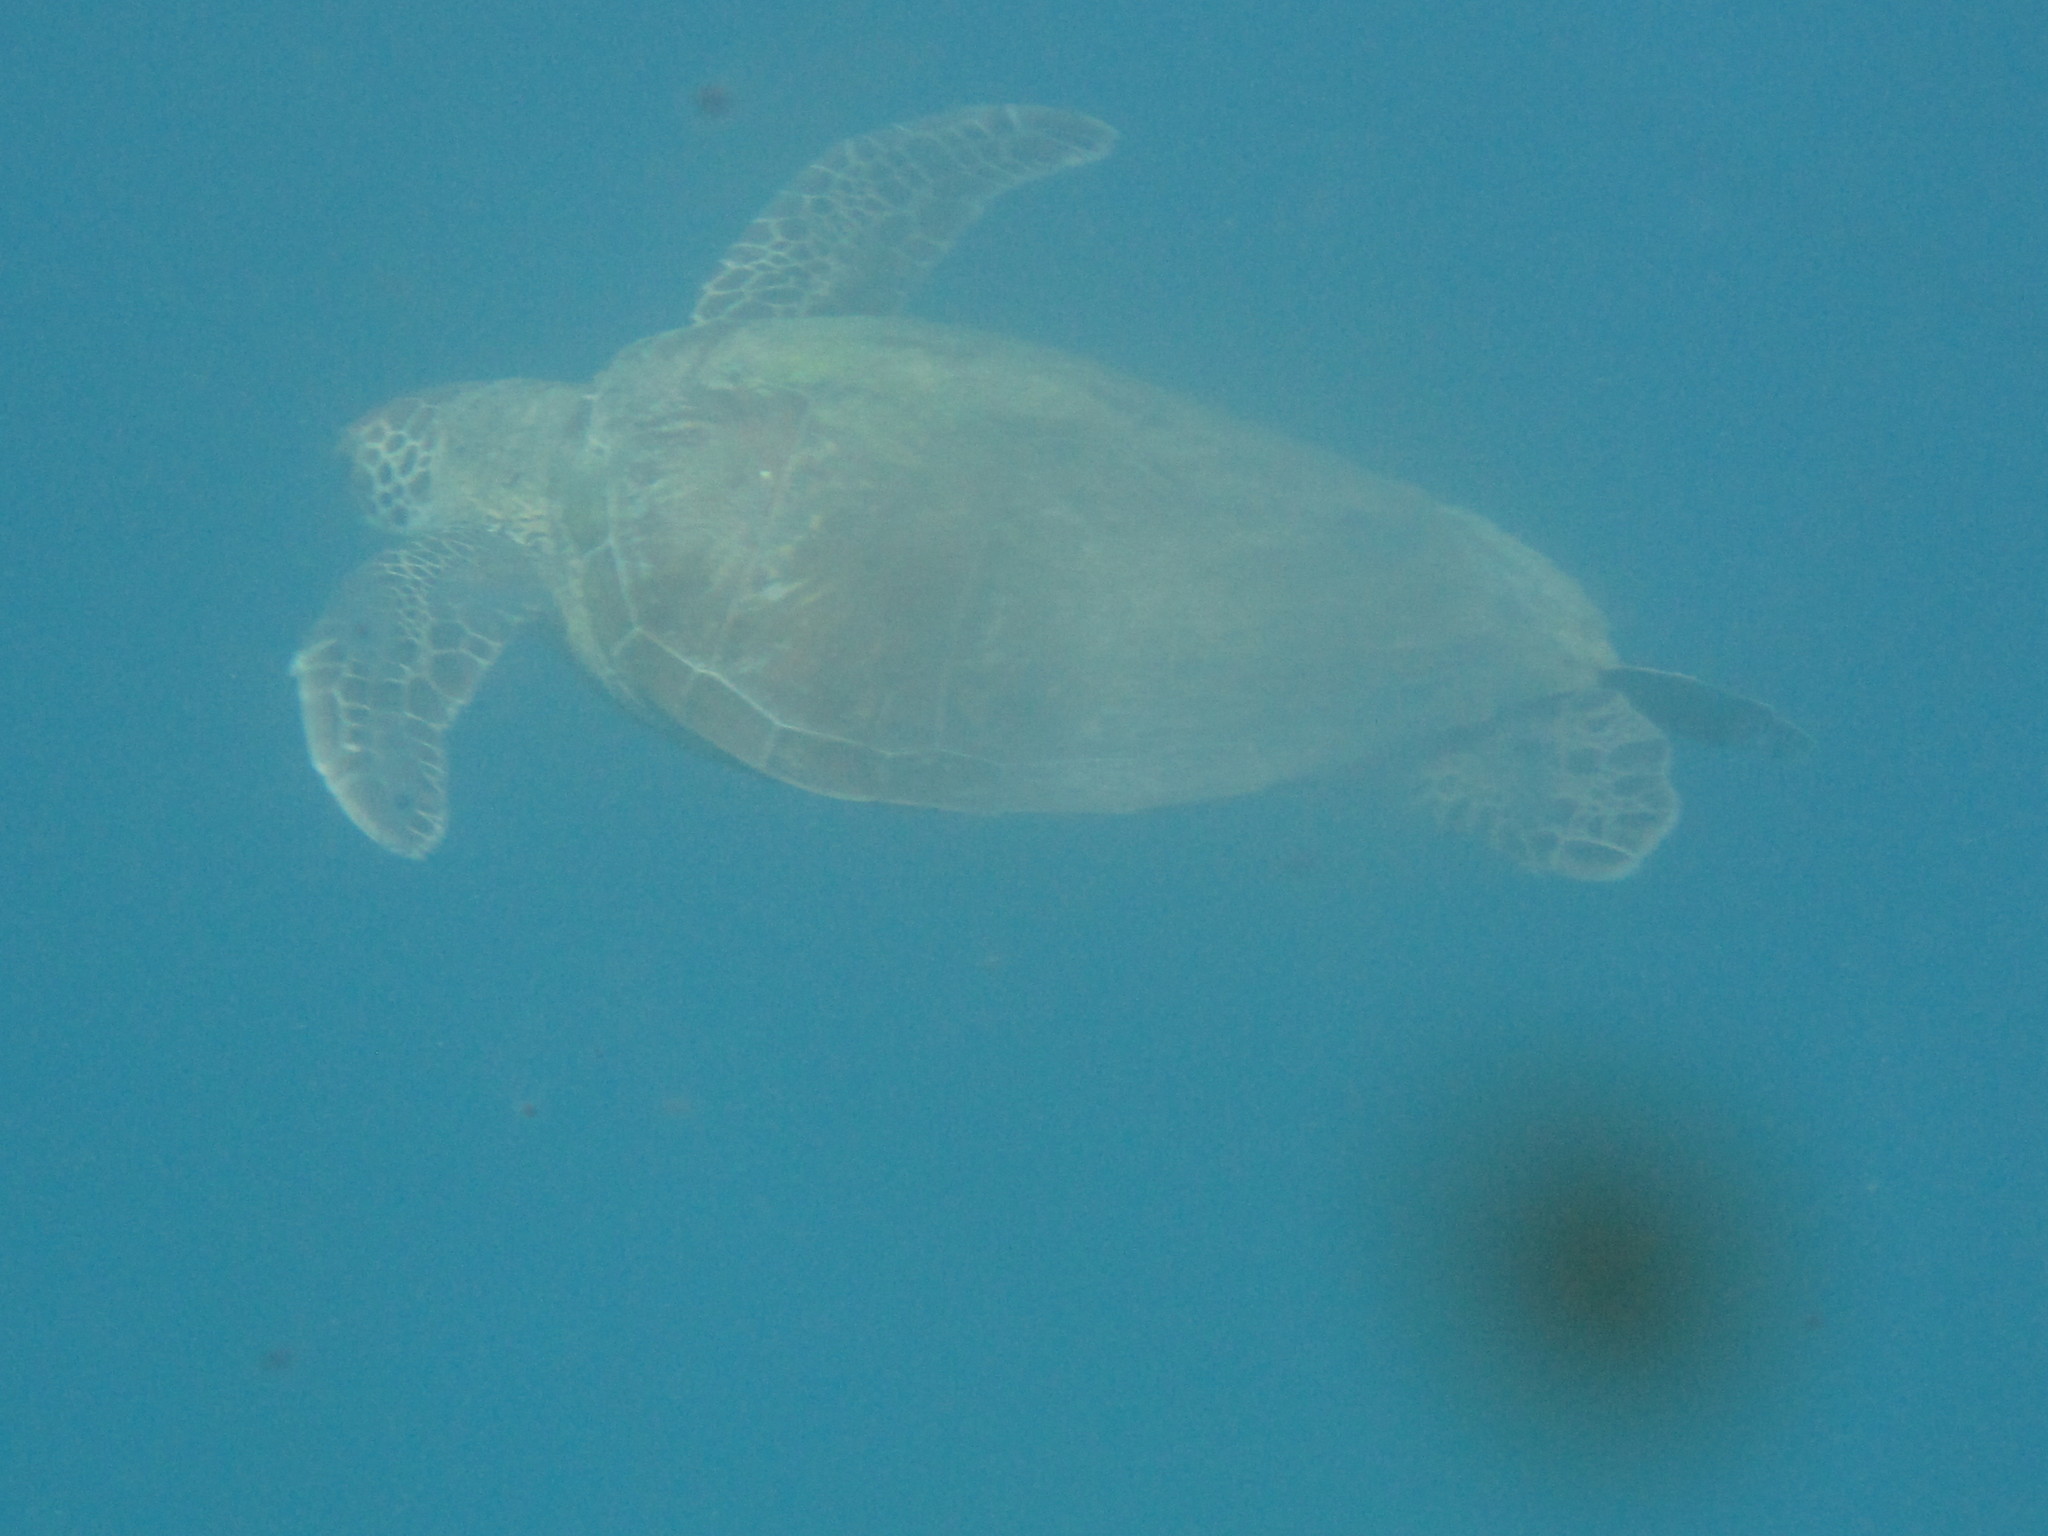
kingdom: Animalia
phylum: Chordata
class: Testudines
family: Cheloniidae
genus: Chelonia
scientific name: Chelonia mydas
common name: Green turtle
